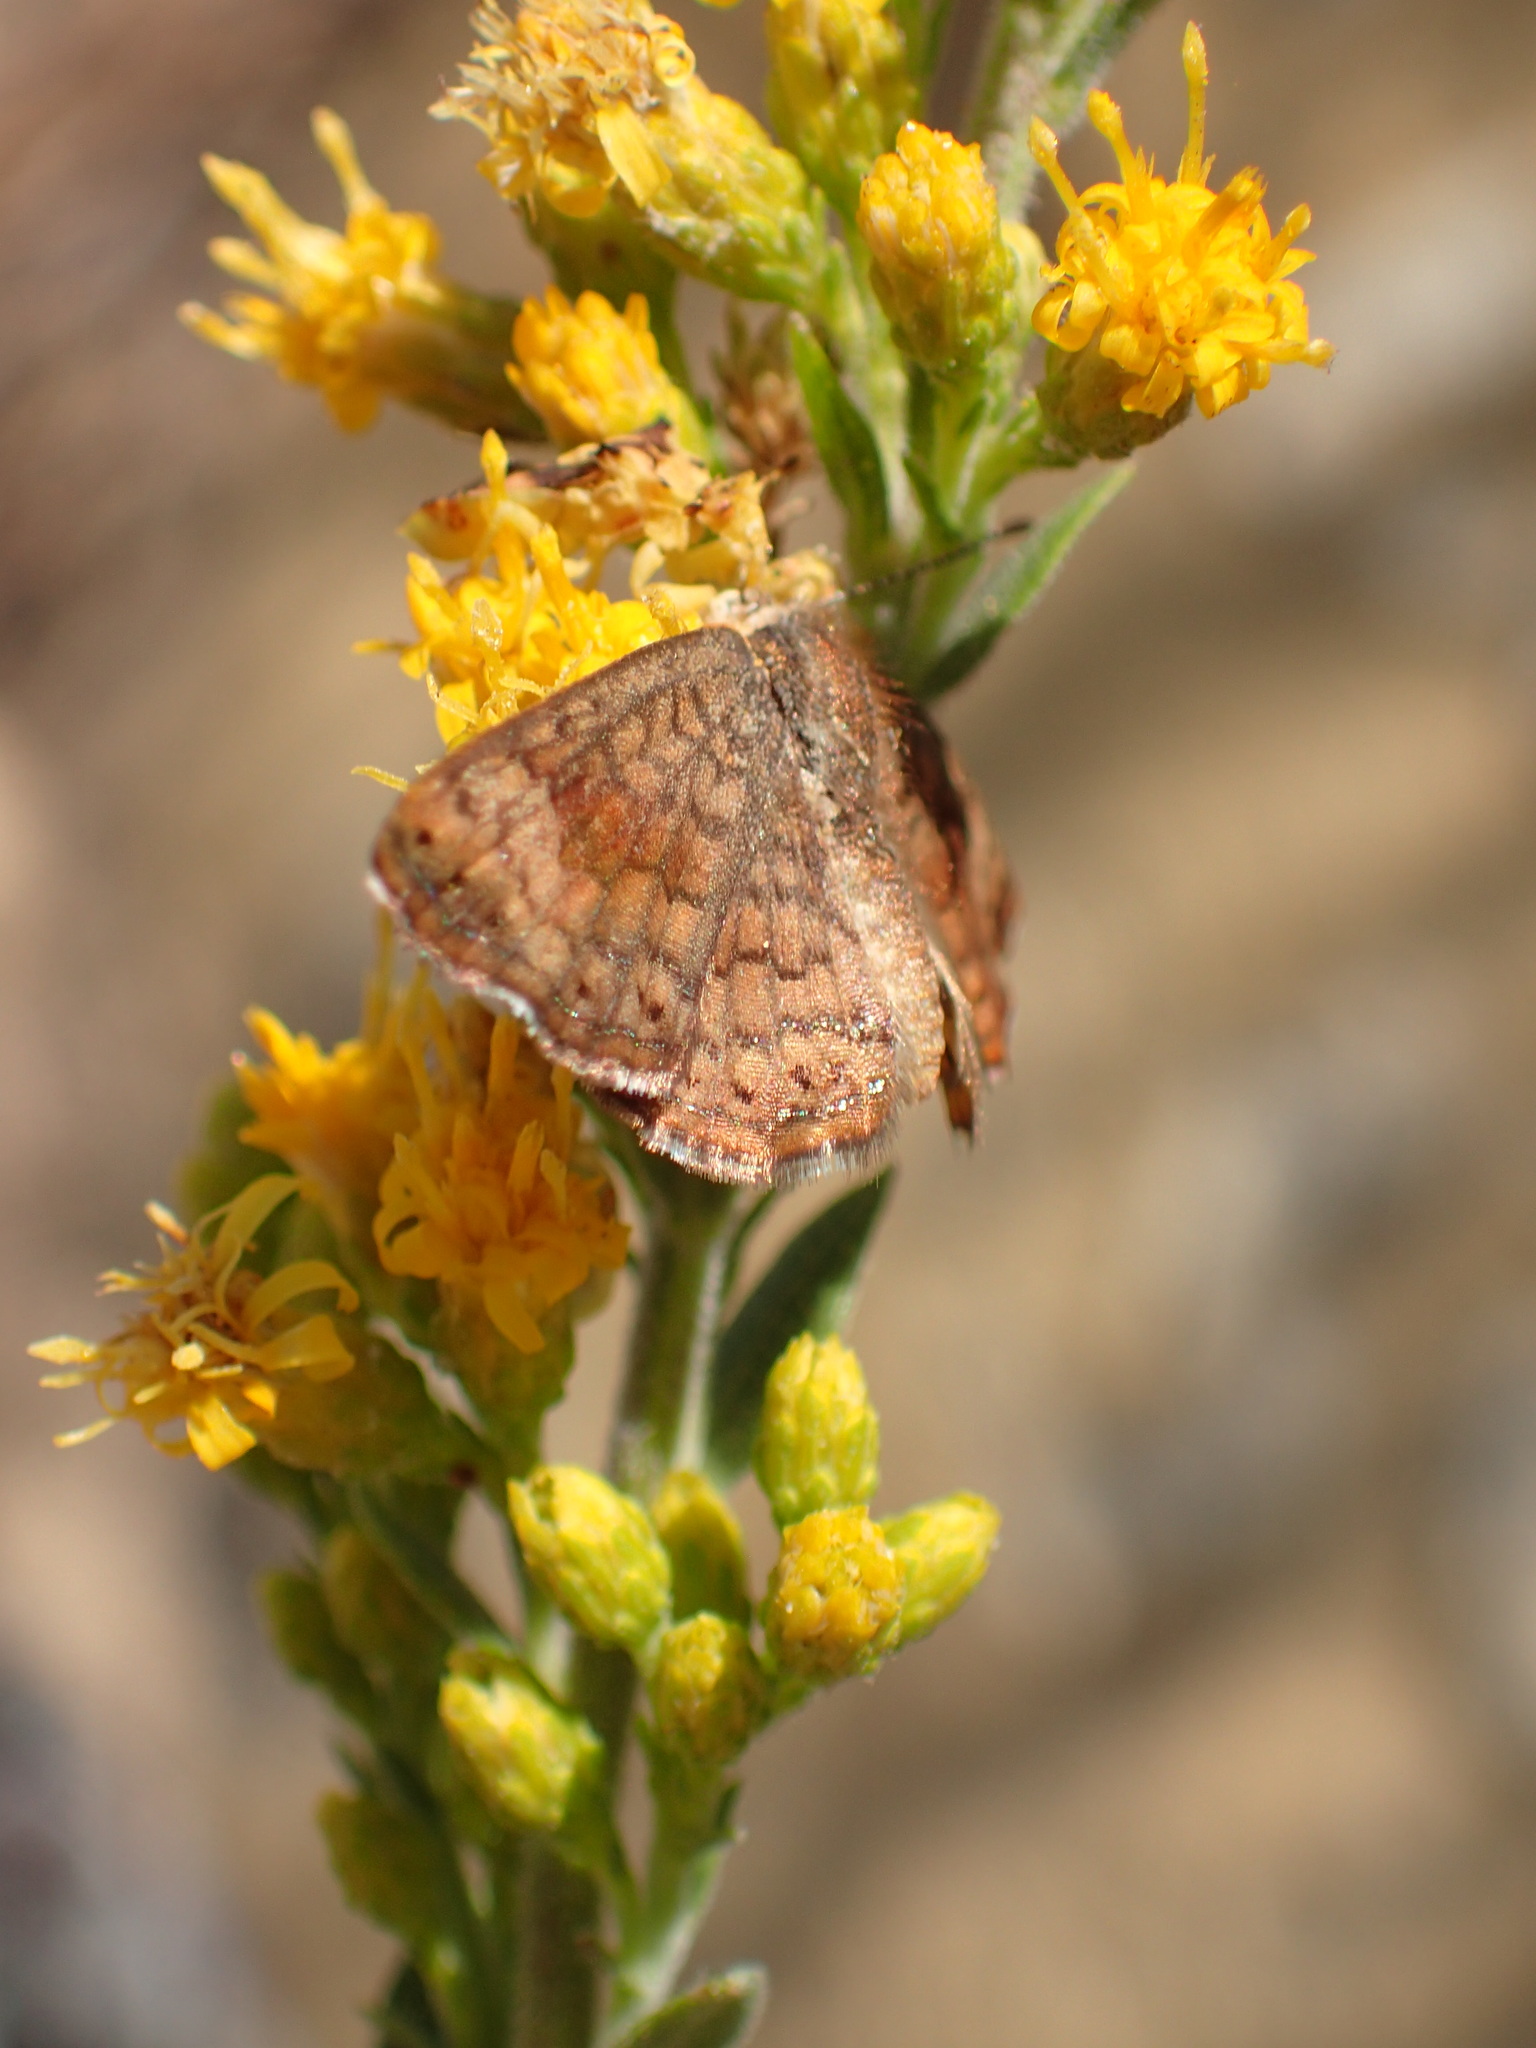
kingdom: Animalia
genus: Calephelis
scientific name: Calephelis nemesis
